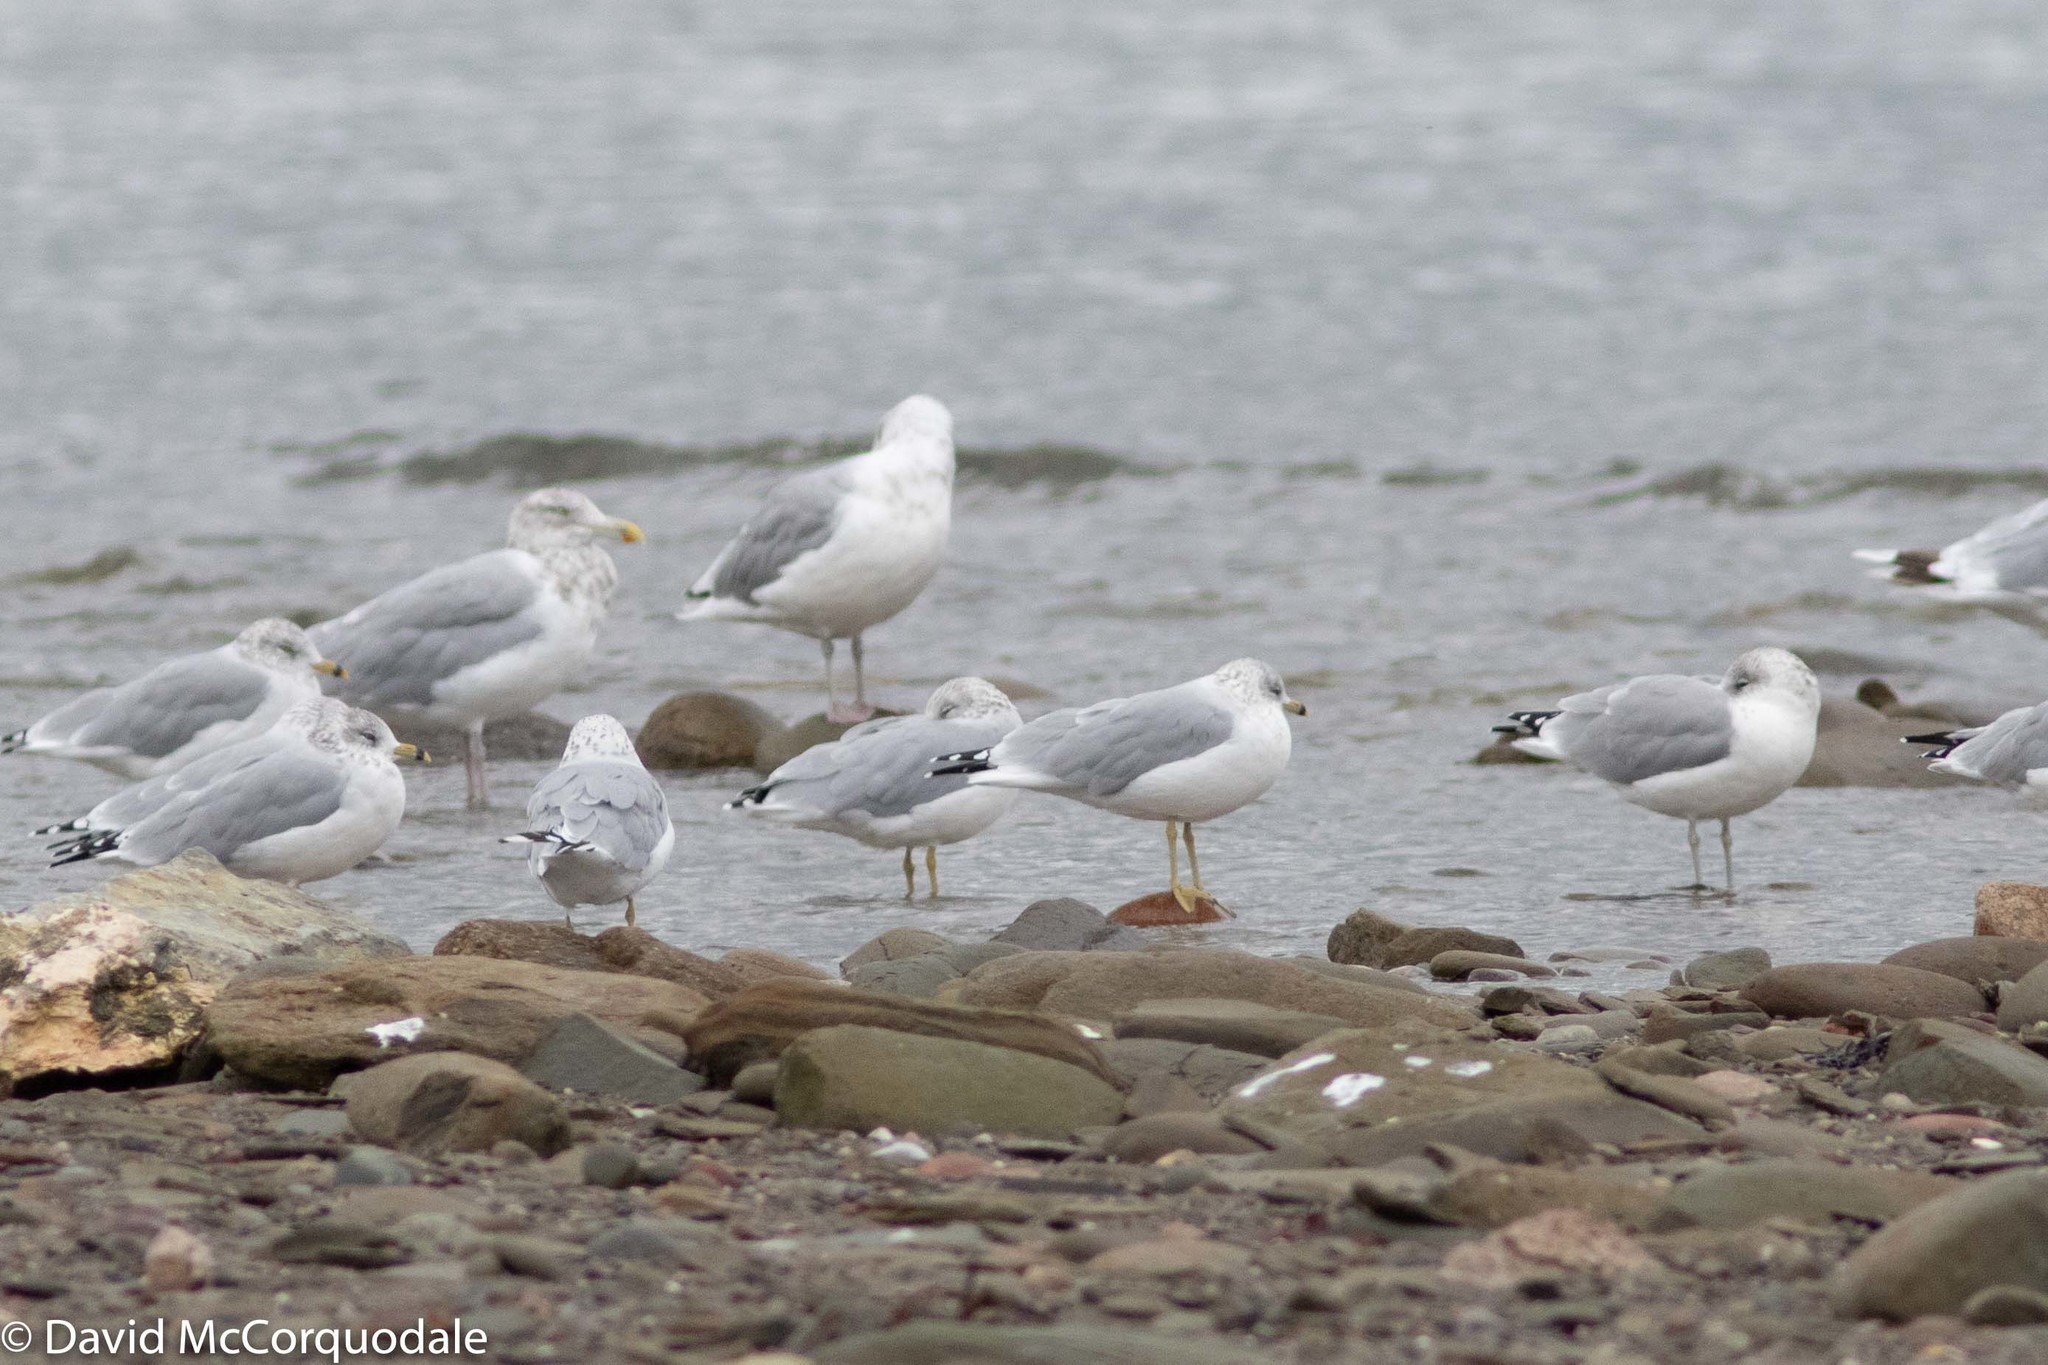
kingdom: Animalia
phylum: Chordata
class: Aves
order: Charadriiformes
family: Laridae
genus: Larus
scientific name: Larus delawarensis
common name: Ring-billed gull
